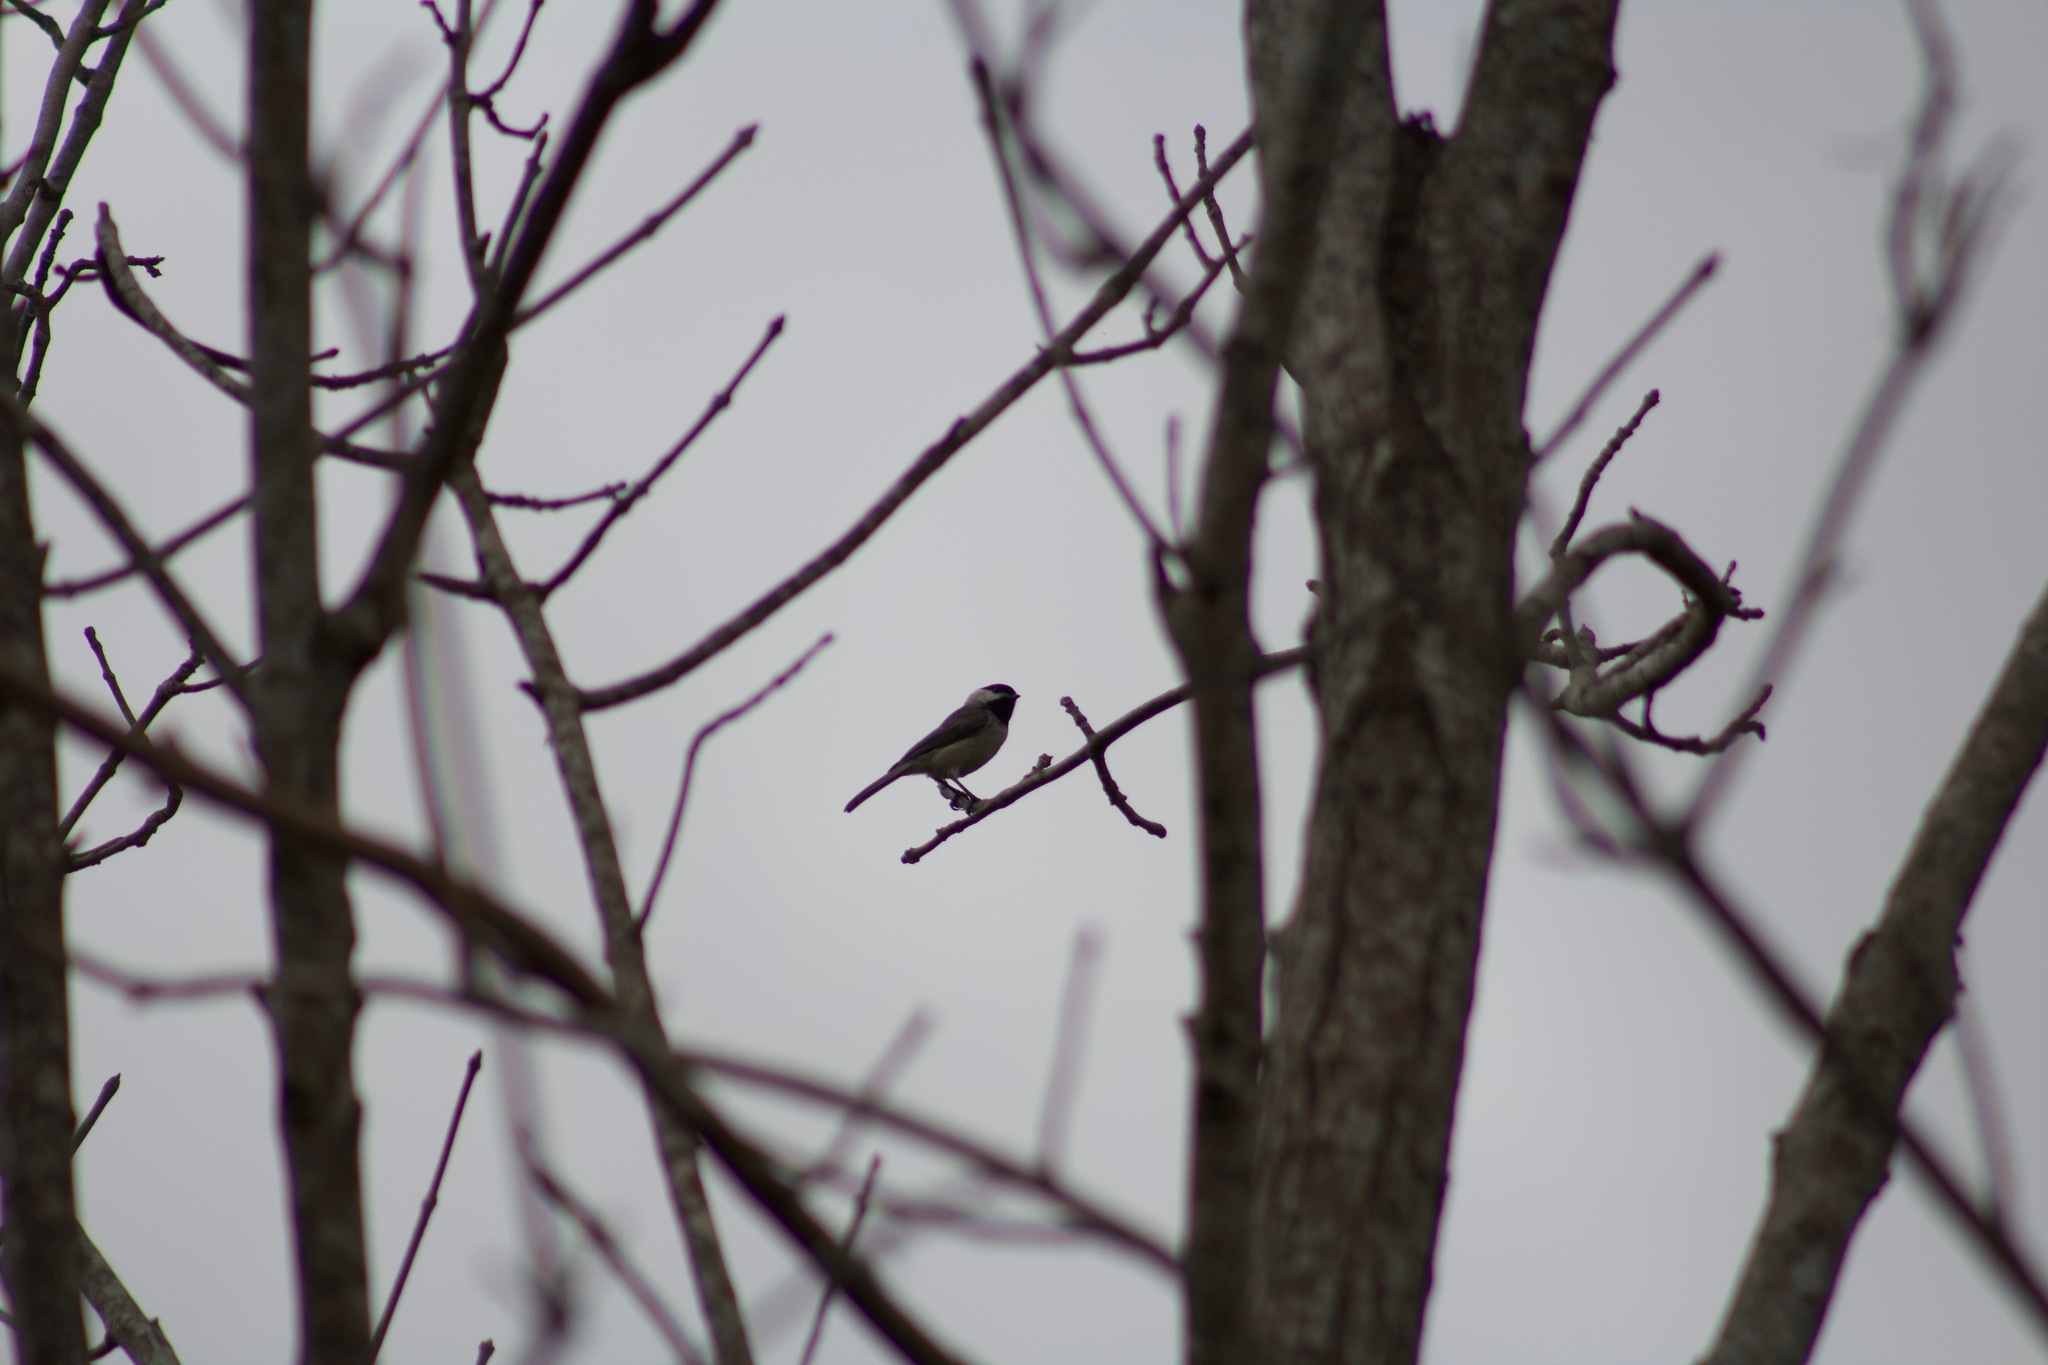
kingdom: Animalia
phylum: Chordata
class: Aves
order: Passeriformes
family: Paridae
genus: Poecile
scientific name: Poecile carolinensis
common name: Carolina chickadee
